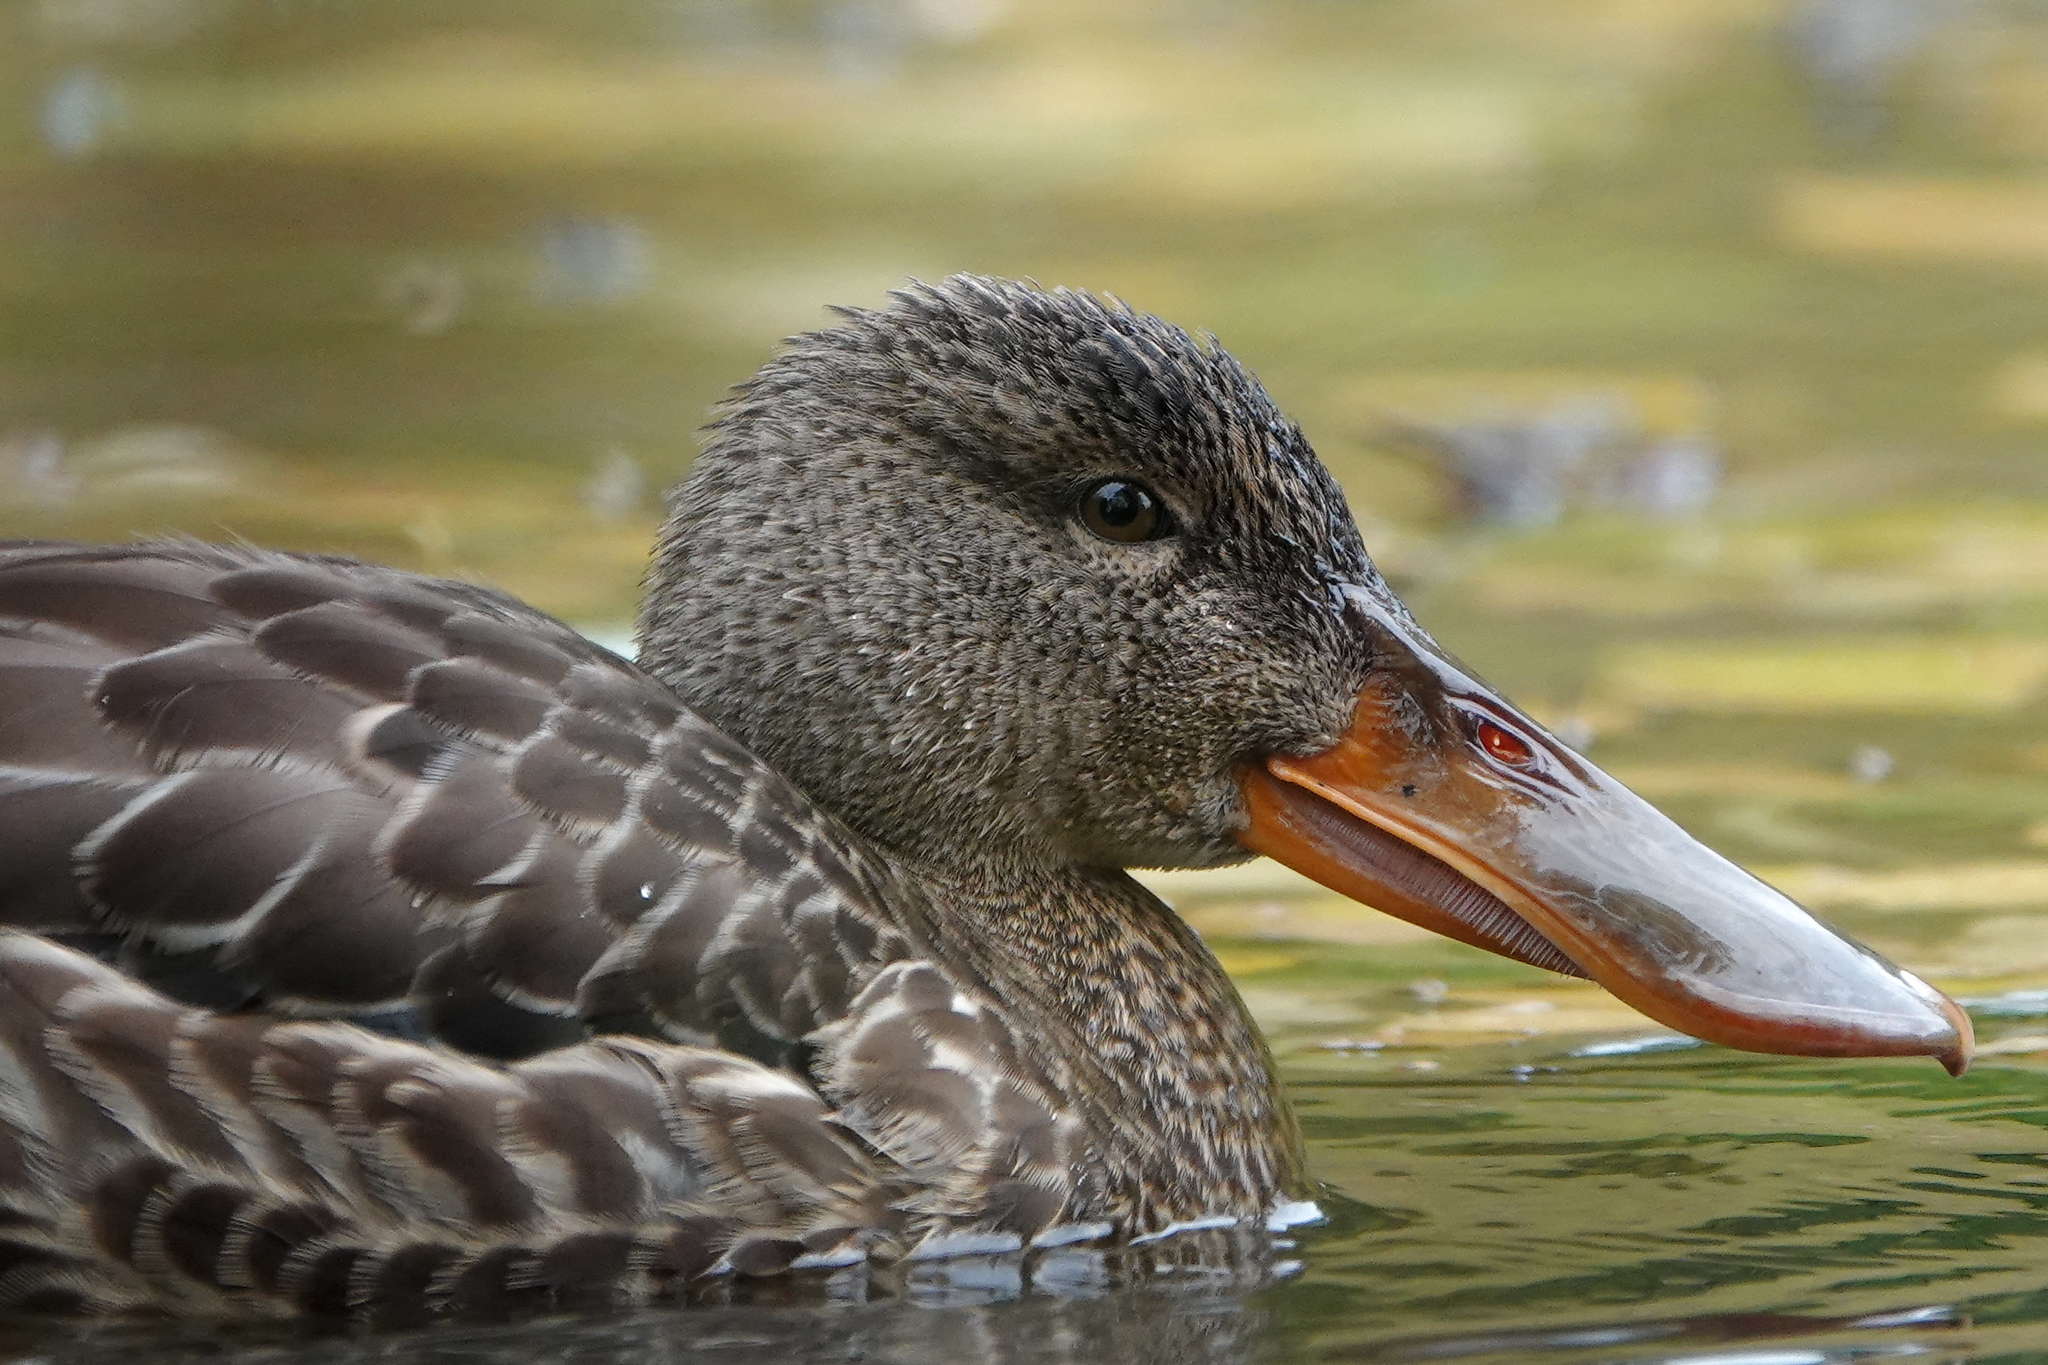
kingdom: Animalia
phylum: Chordata
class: Aves
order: Anseriformes
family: Anatidae
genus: Spatula
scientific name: Spatula clypeata
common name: Northern shoveler
